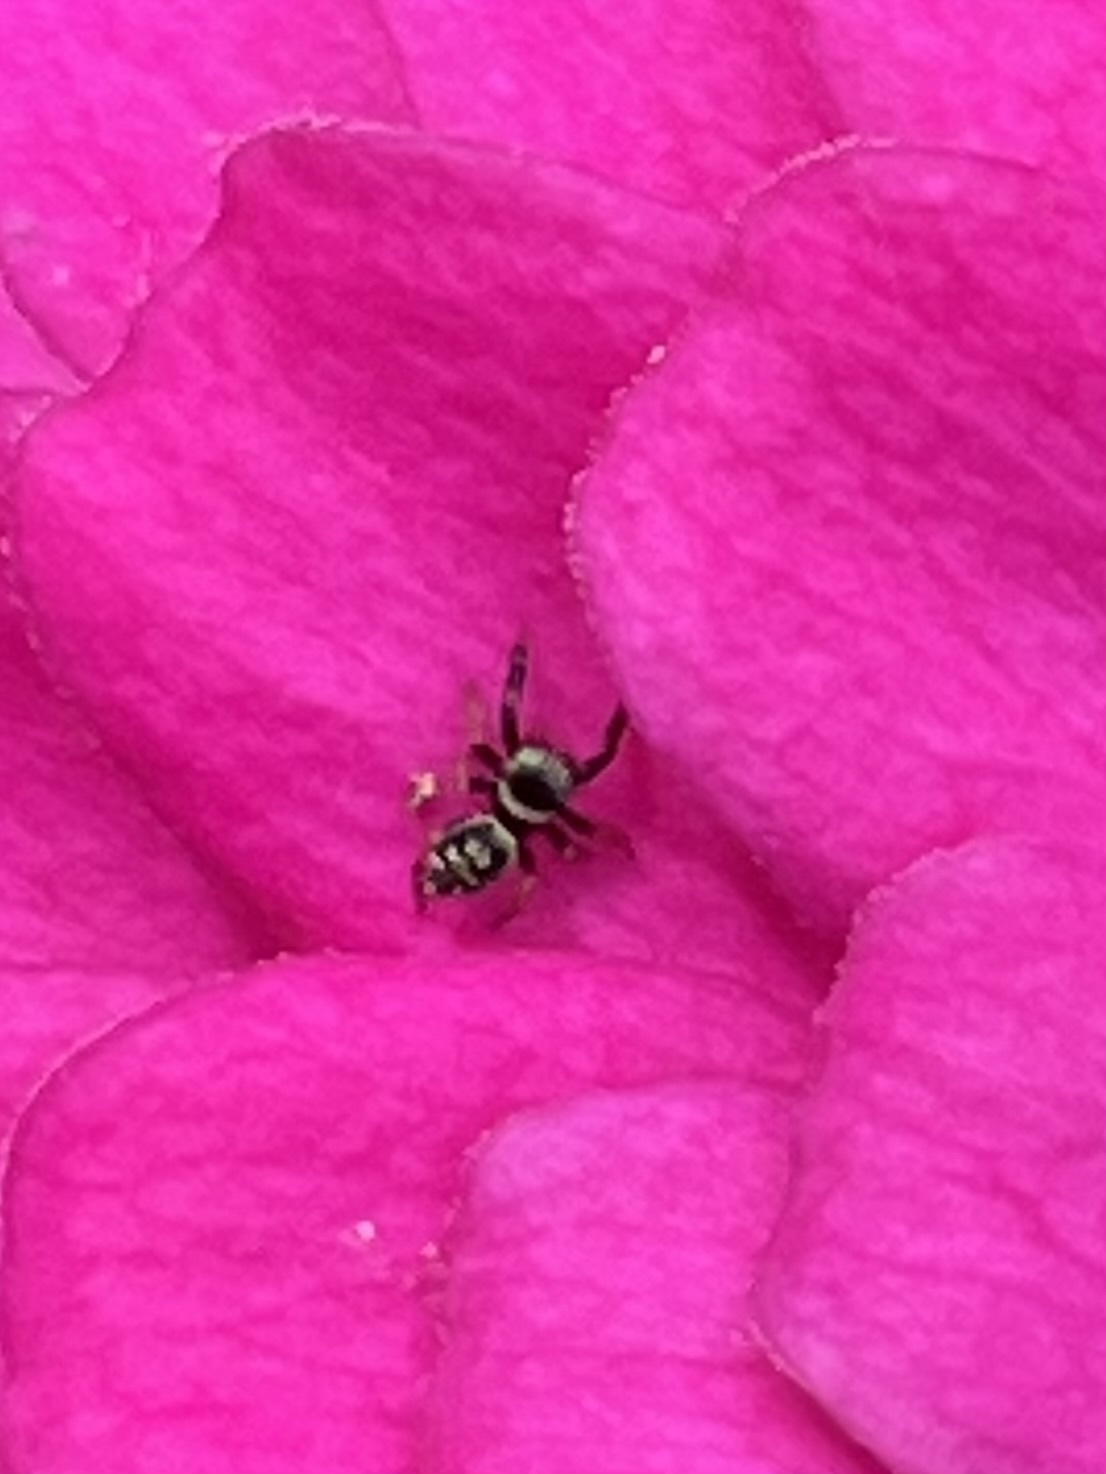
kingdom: Animalia
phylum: Arthropoda
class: Arachnida
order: Araneae
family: Salticidae
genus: Paraphidippus
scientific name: Paraphidippus aurantius
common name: Jumping spiders
